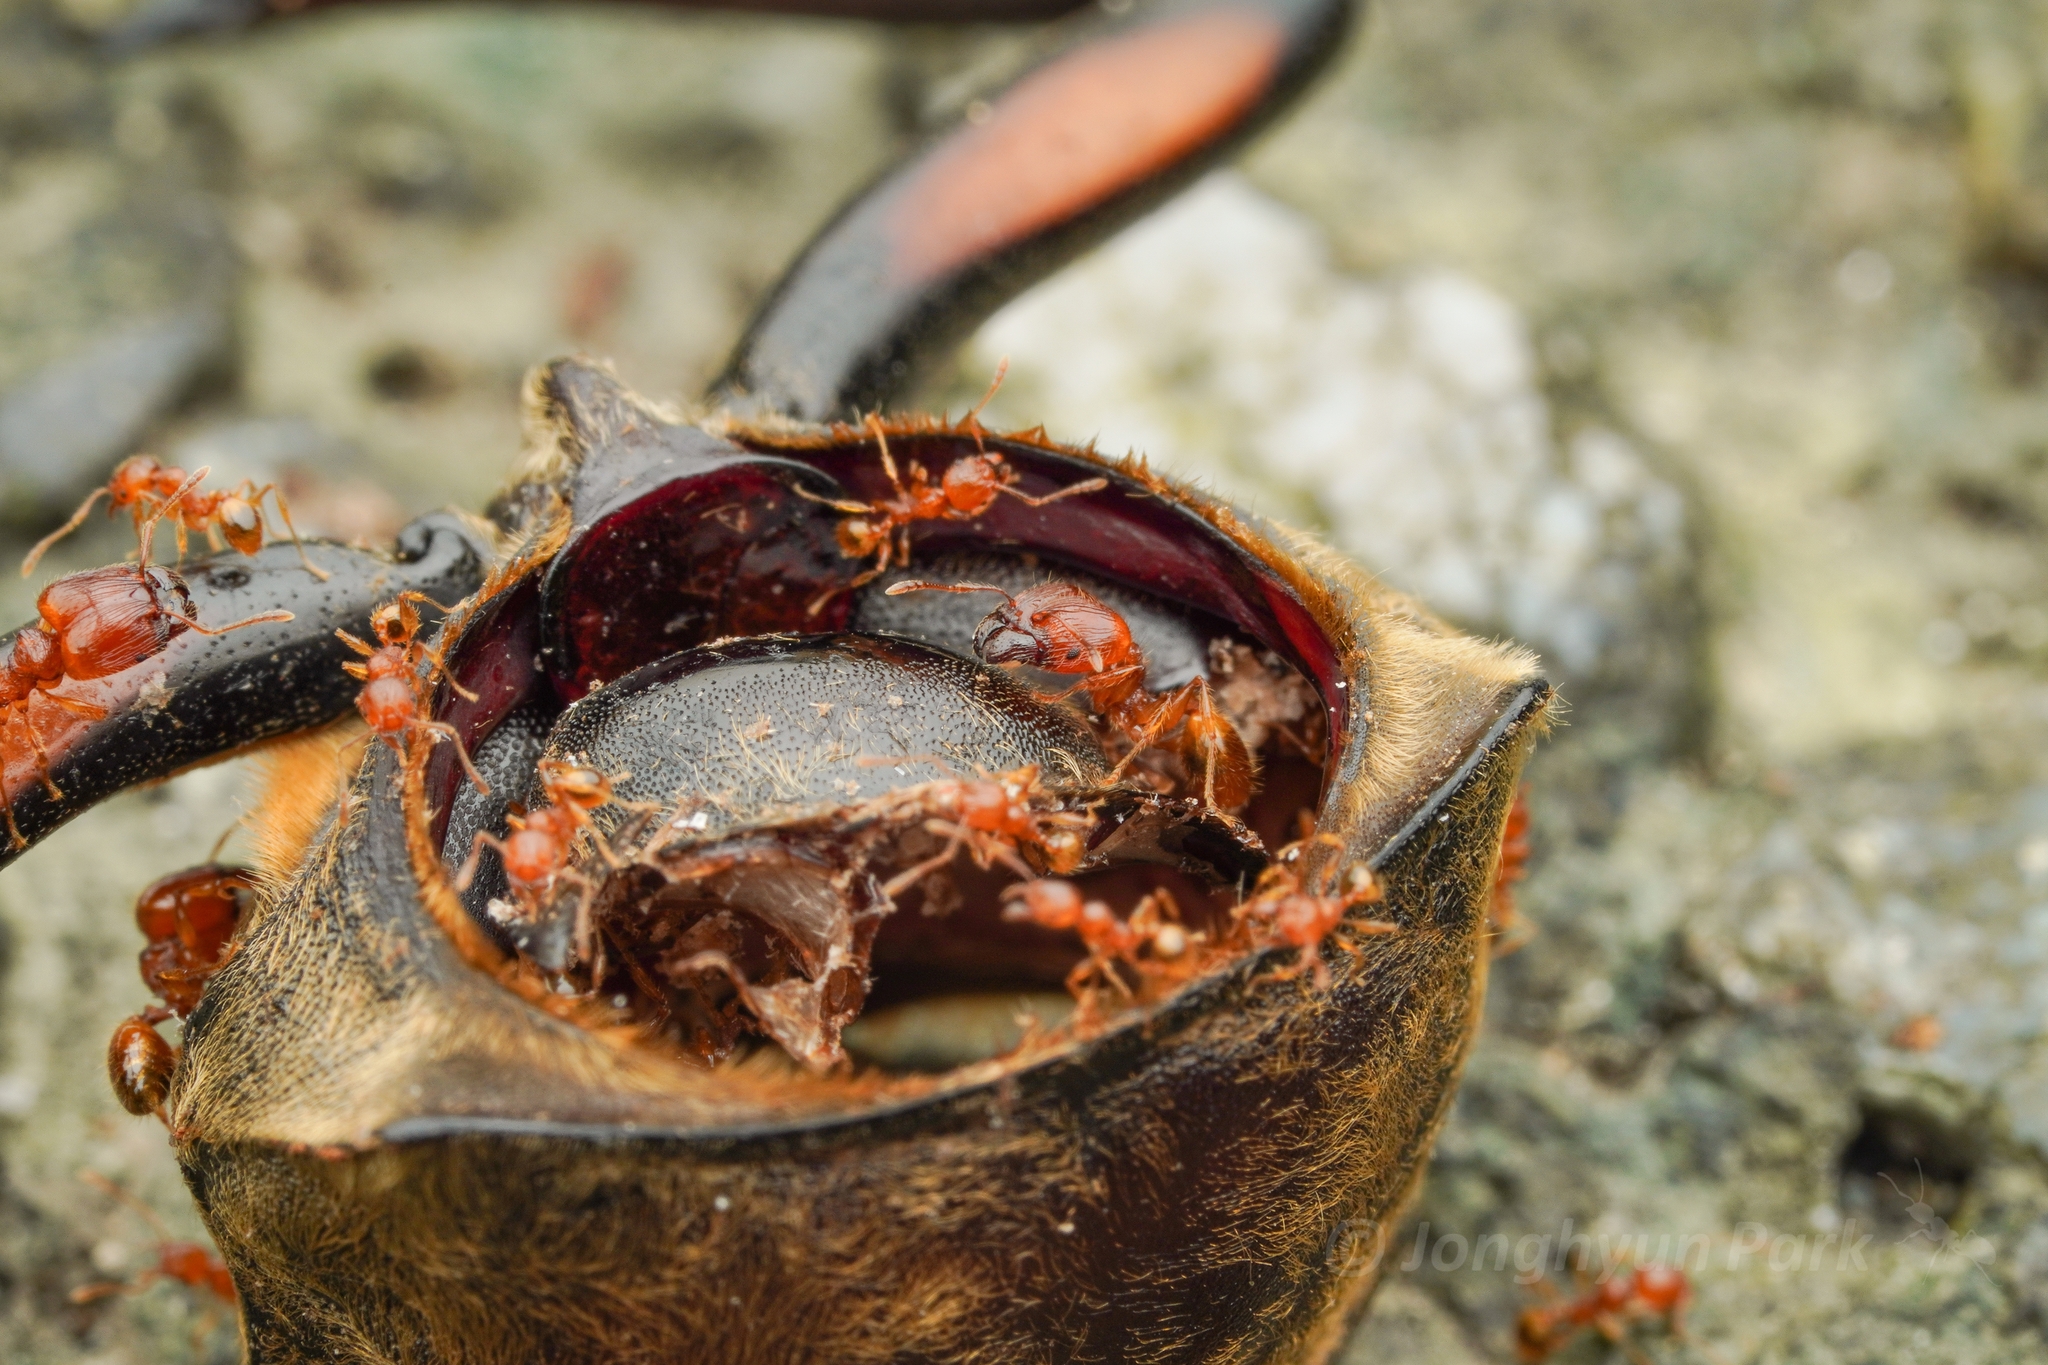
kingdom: Animalia
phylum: Arthropoda
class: Insecta
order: Hymenoptera
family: Formicidae
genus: Pheidole
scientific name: Pheidole fervida
